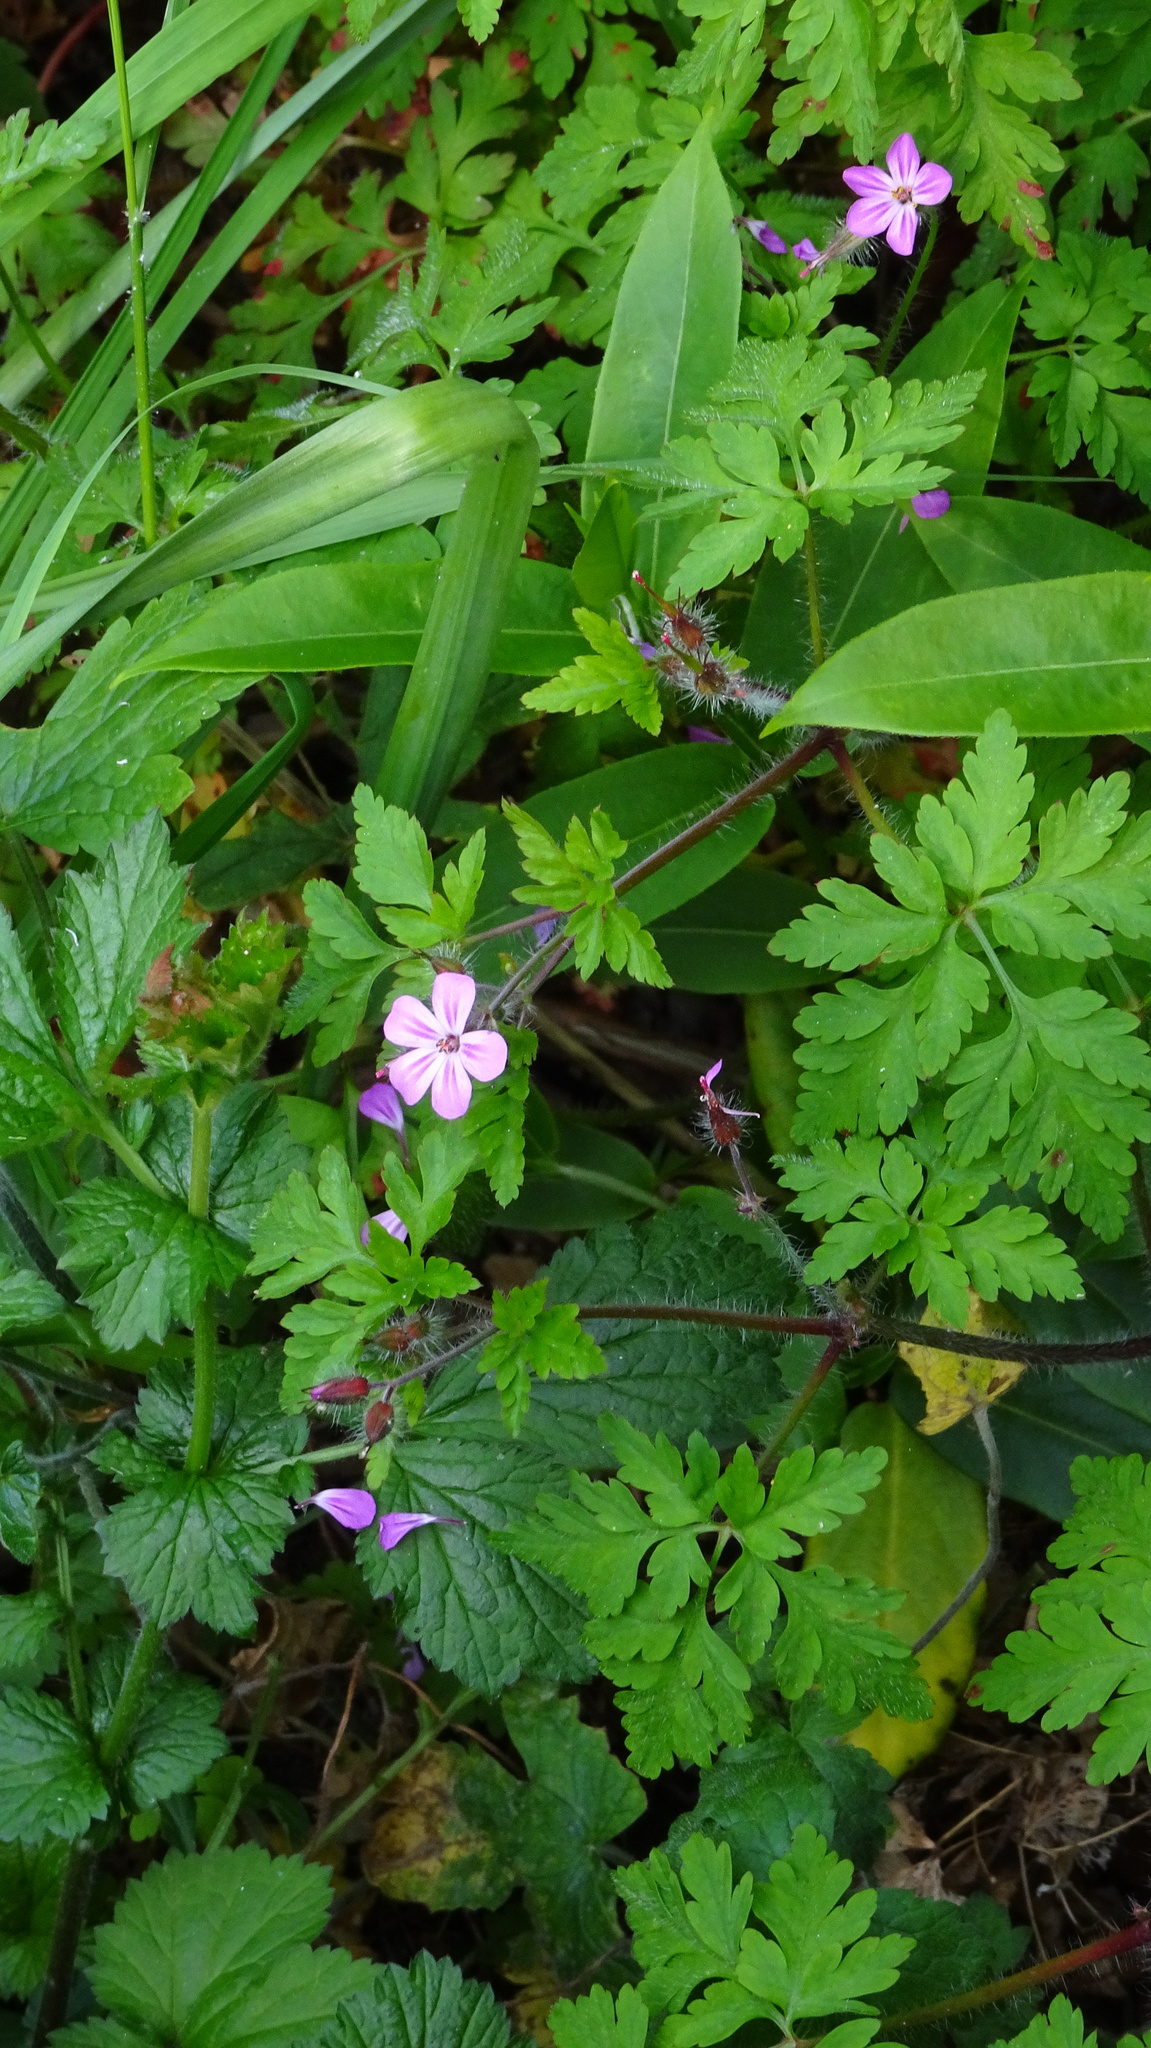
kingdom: Plantae
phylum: Tracheophyta
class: Magnoliopsida
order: Geraniales
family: Geraniaceae
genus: Geranium
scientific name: Geranium robertianum
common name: Herb-robert
